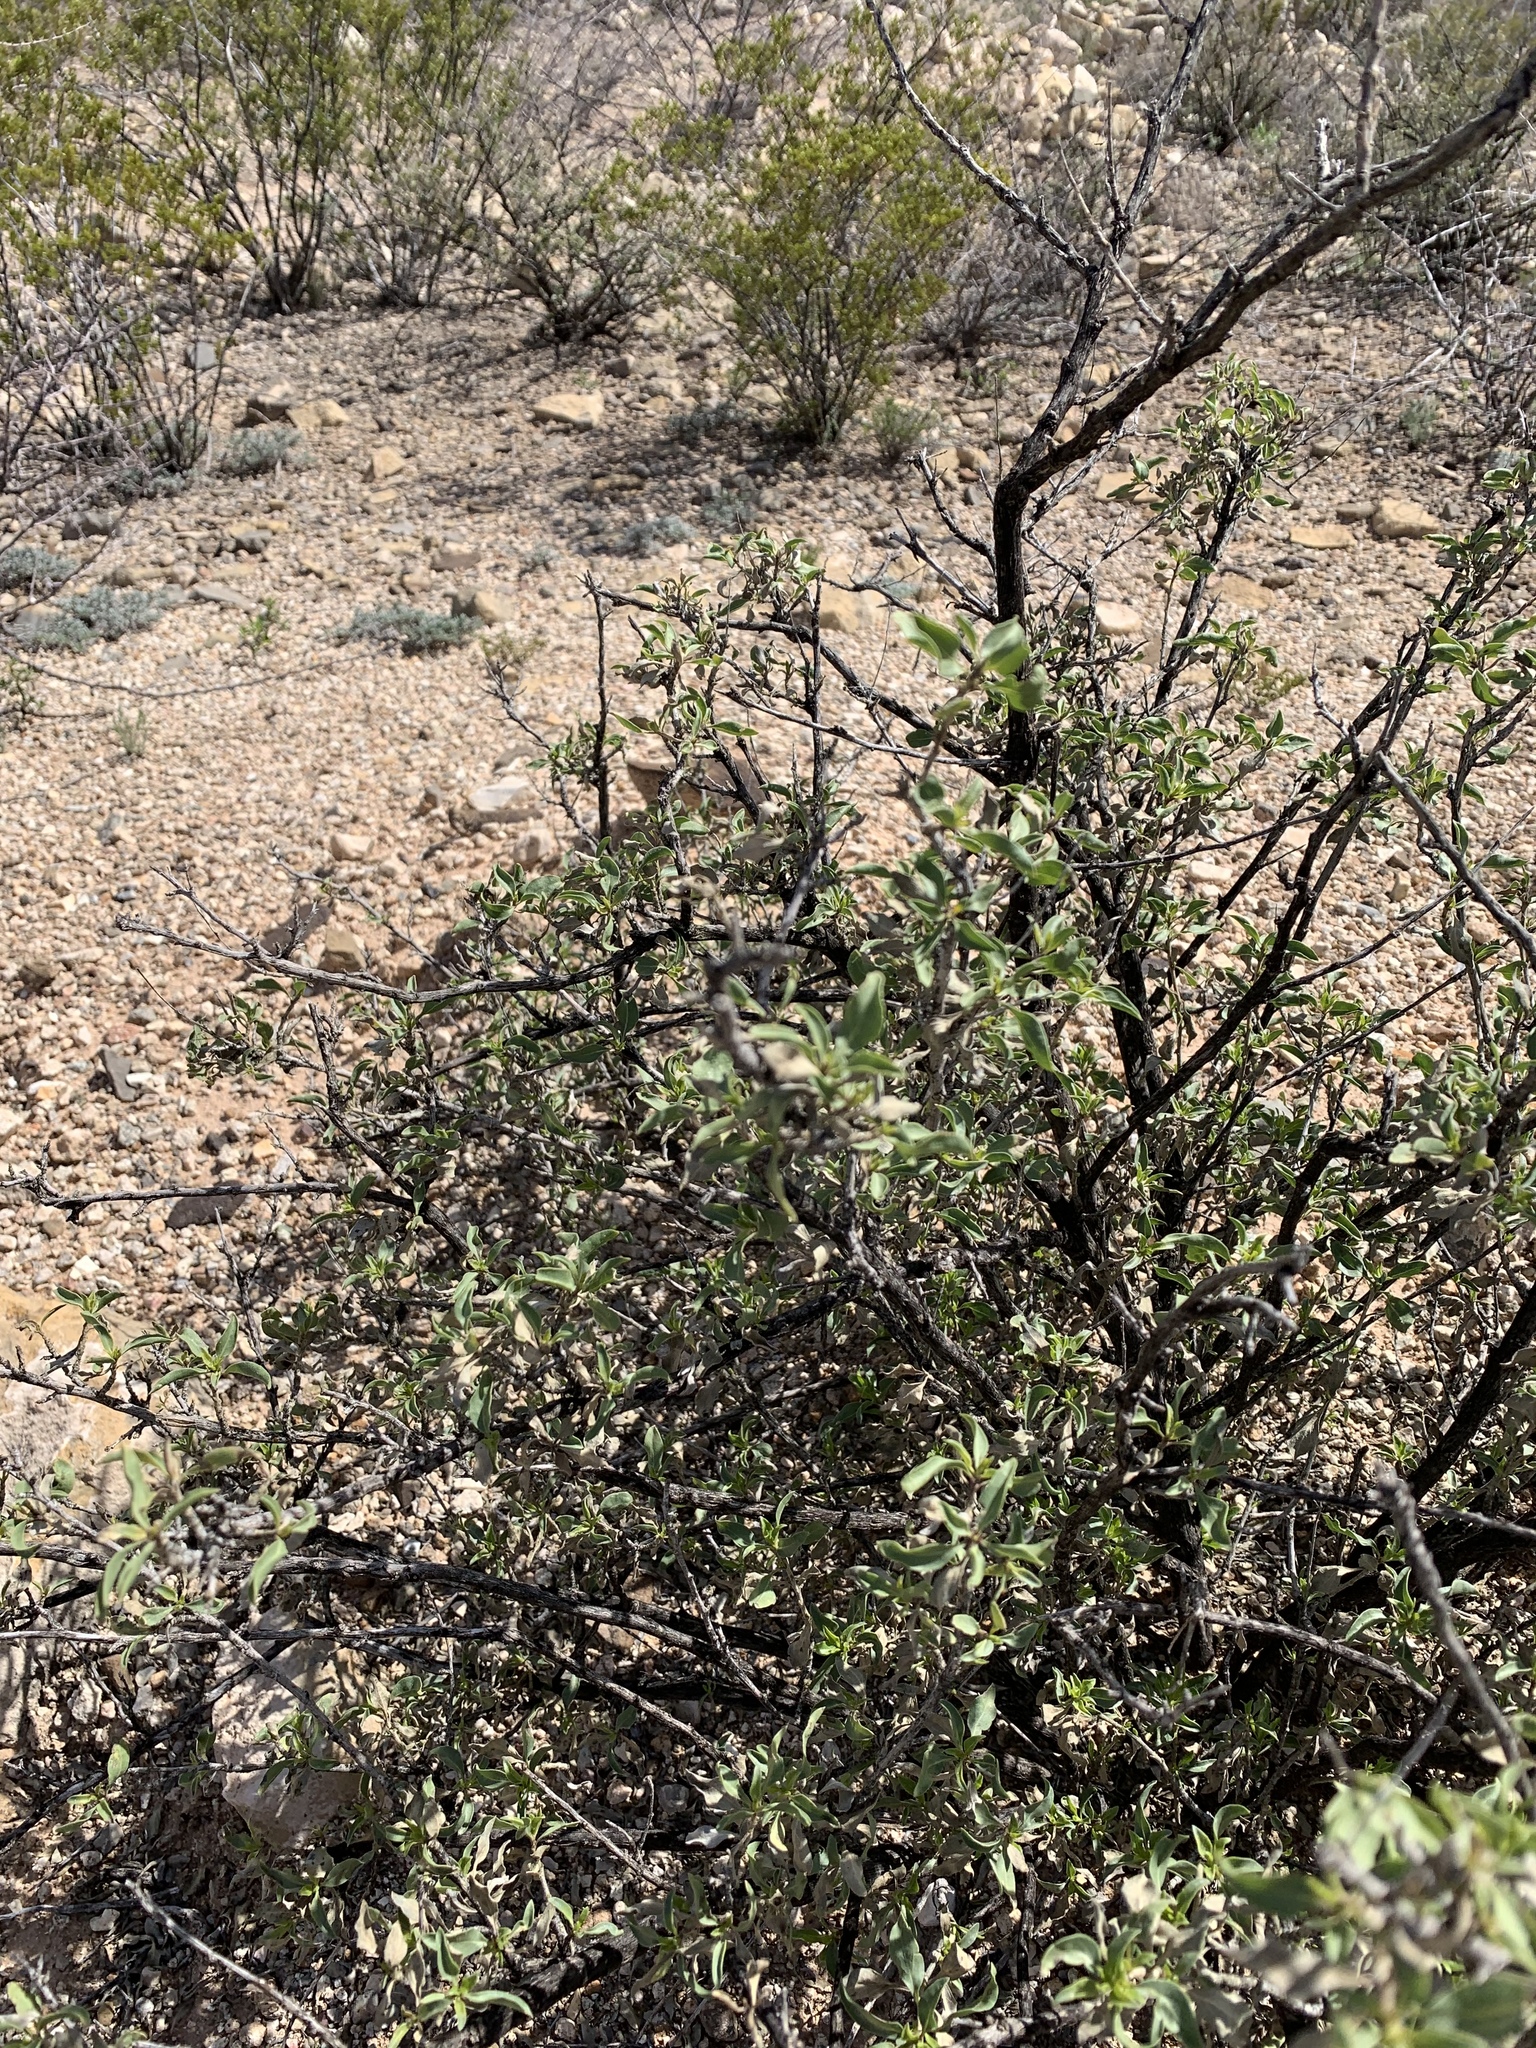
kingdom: Plantae
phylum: Tracheophyta
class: Magnoliopsida
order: Asterales
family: Asteraceae
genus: Flourensia
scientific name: Flourensia cernua
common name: Varnishbush
